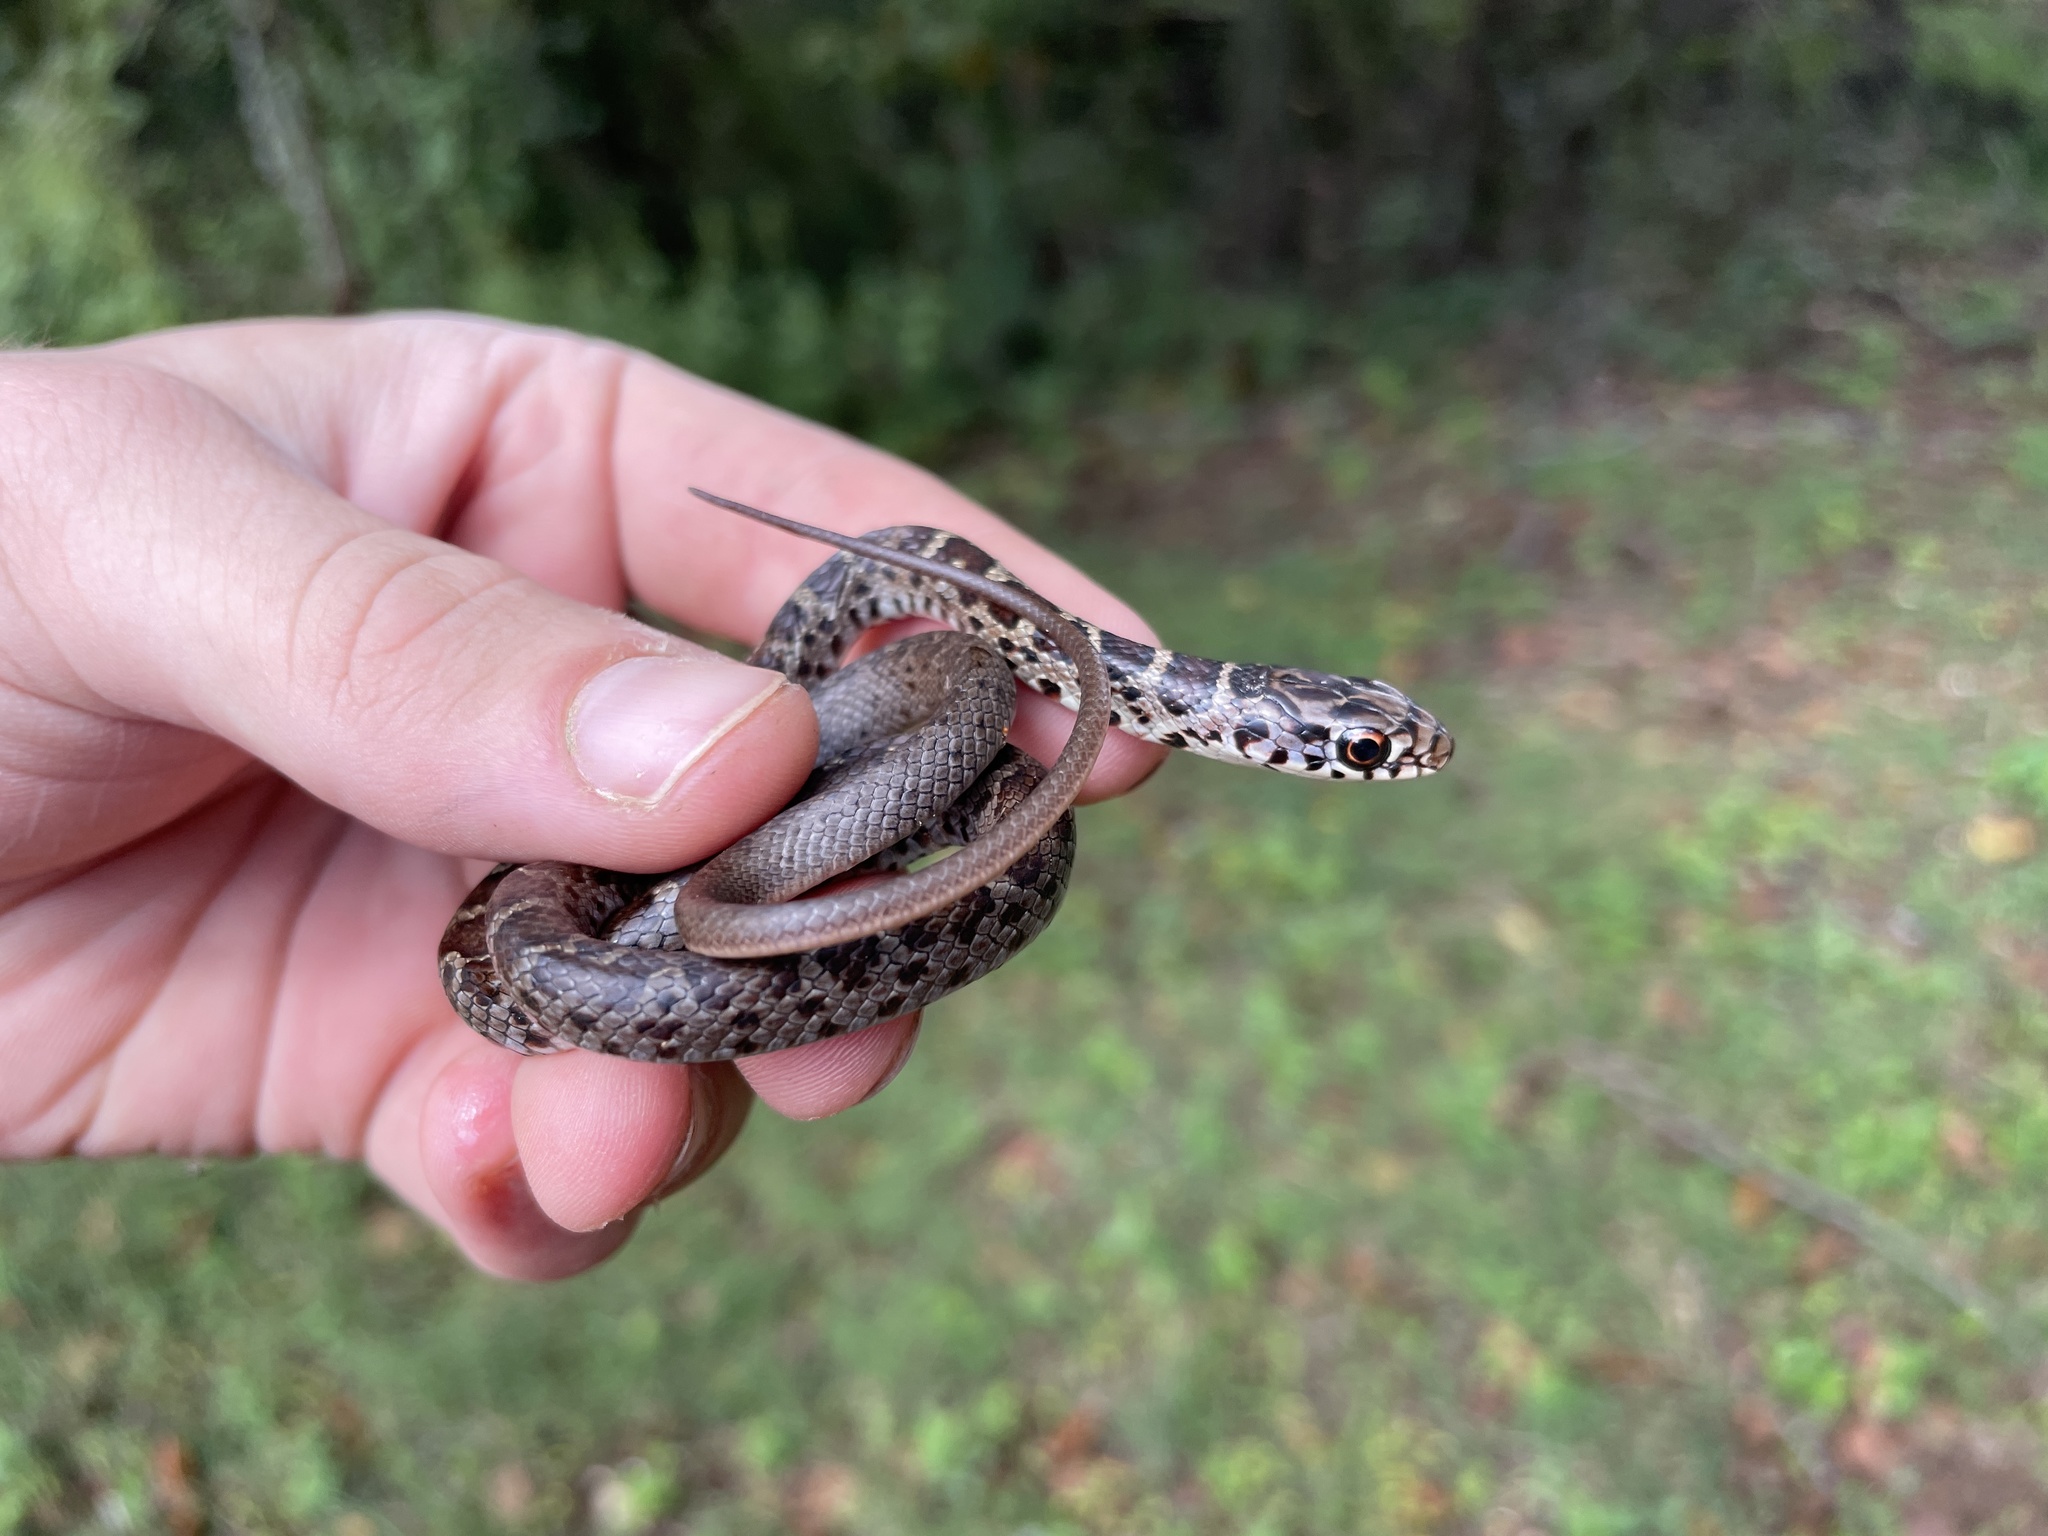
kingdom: Animalia
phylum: Chordata
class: Squamata
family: Colubridae
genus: Coluber
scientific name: Coluber constrictor
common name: Eastern racer
